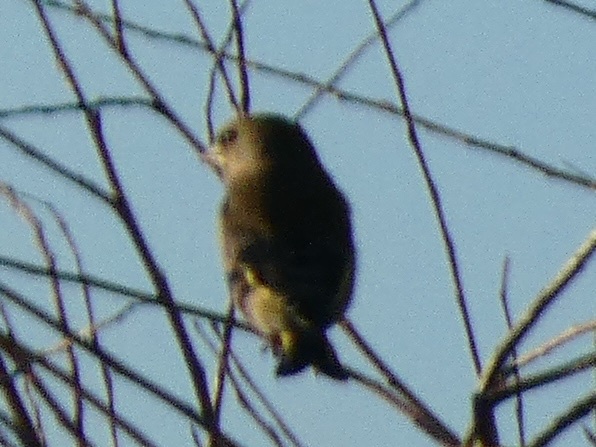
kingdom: Plantae
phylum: Tracheophyta
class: Liliopsida
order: Poales
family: Poaceae
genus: Chloris
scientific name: Chloris chloris
